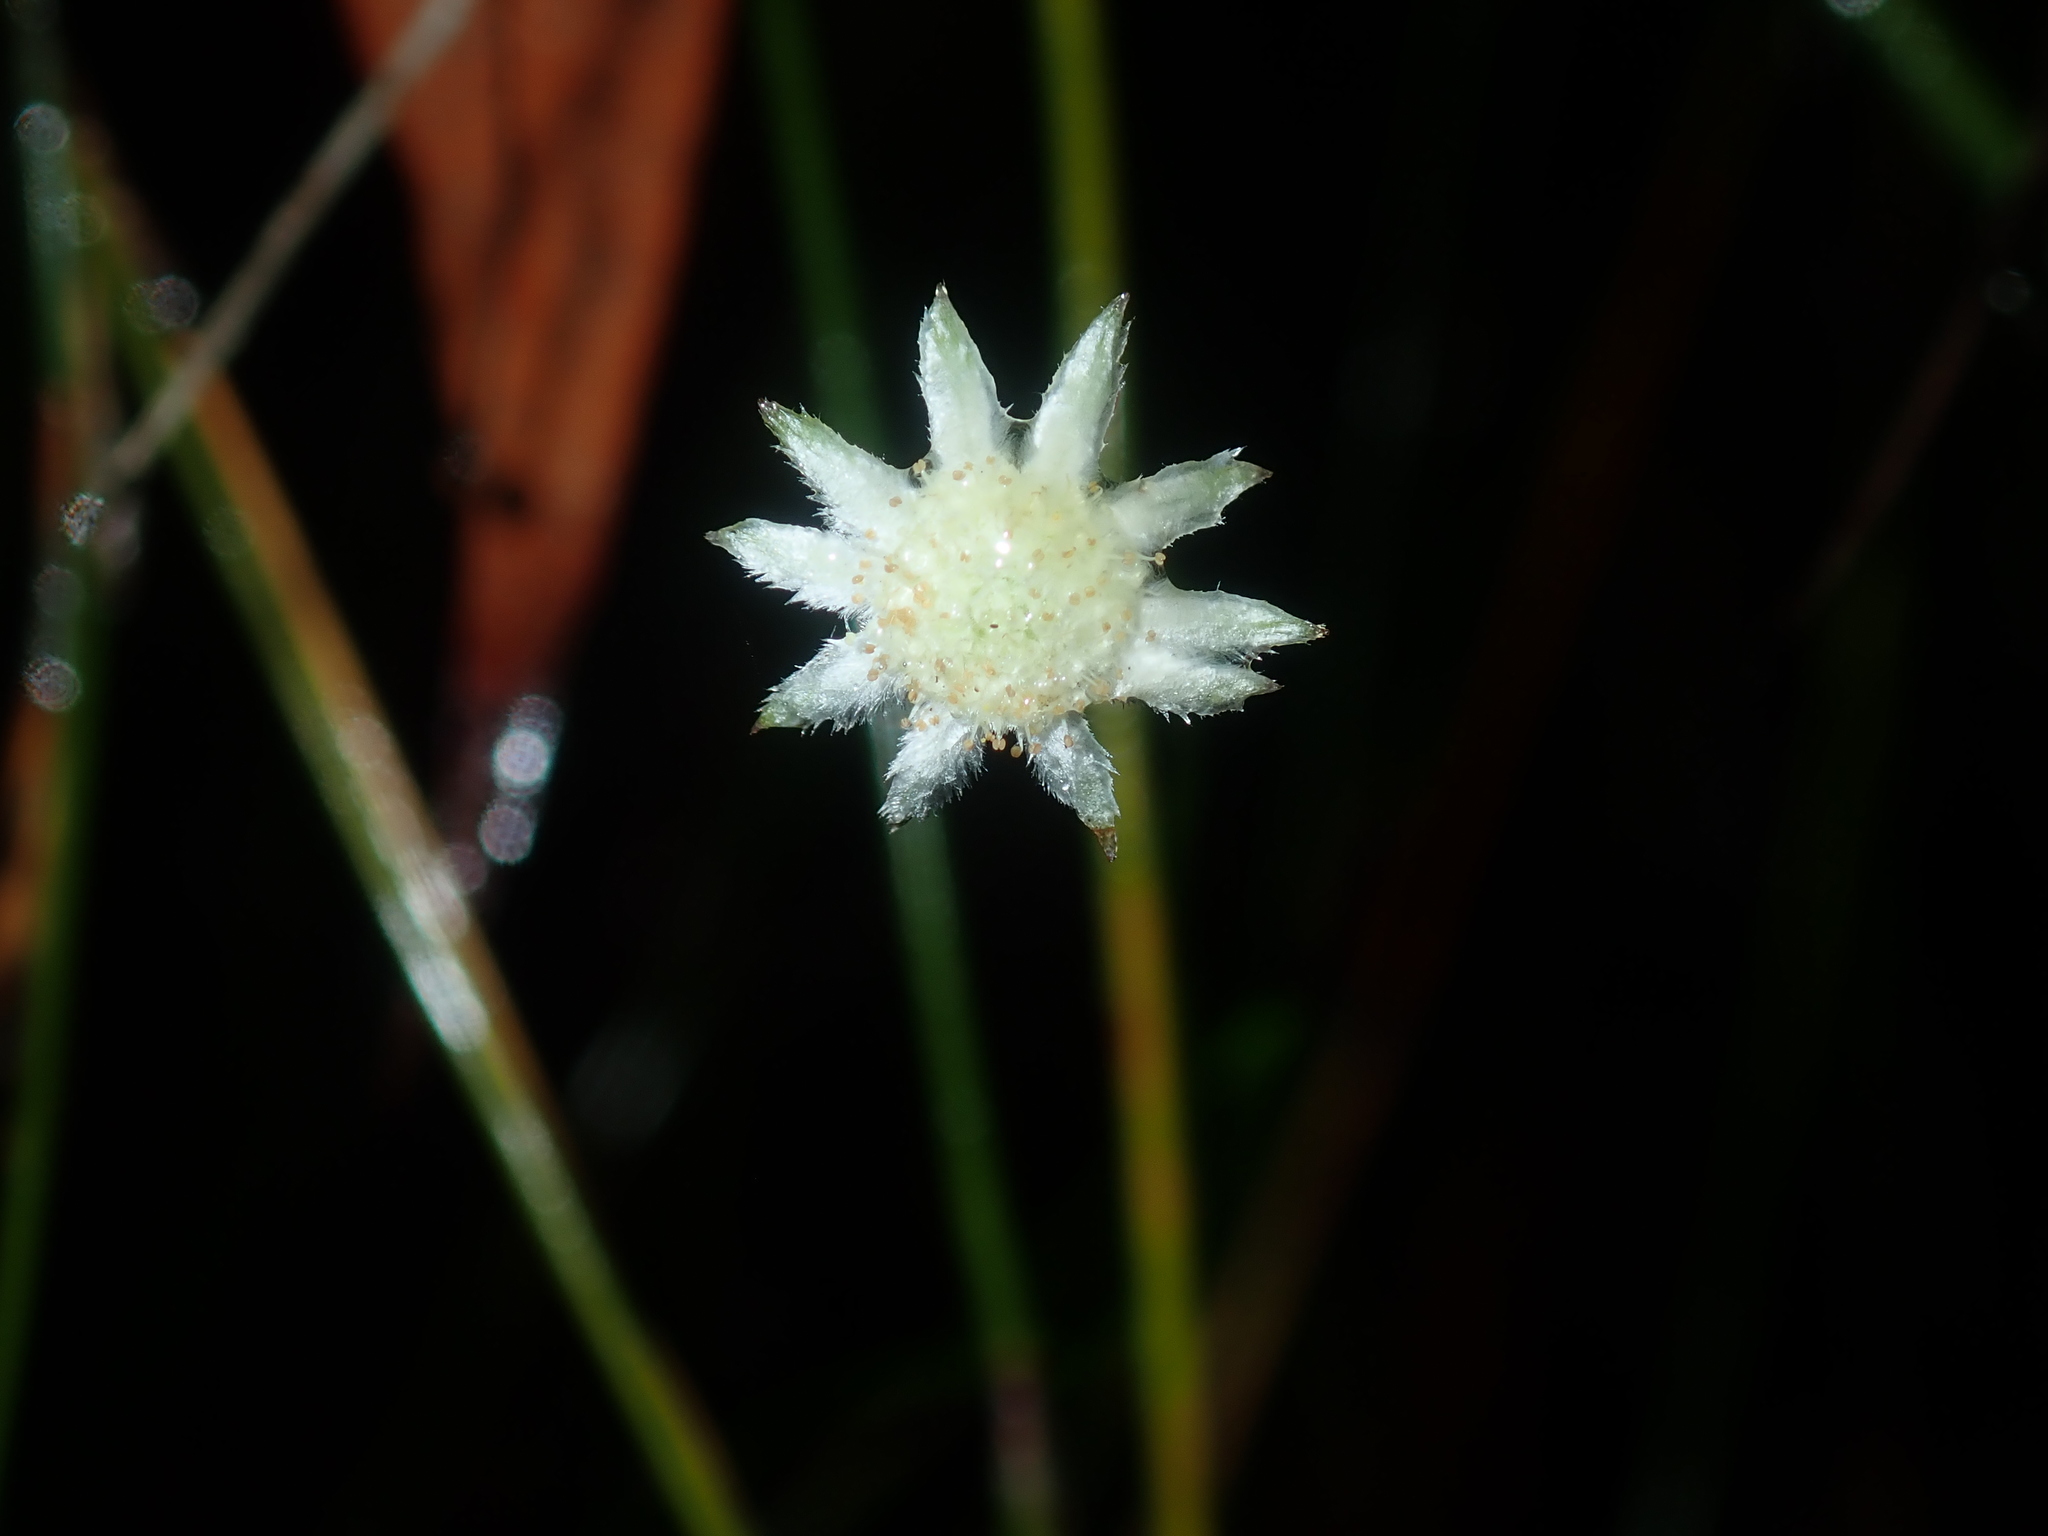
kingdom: Plantae
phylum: Tracheophyta
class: Magnoliopsida
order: Apiales
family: Apiaceae
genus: Actinotus
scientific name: Actinotus minor
